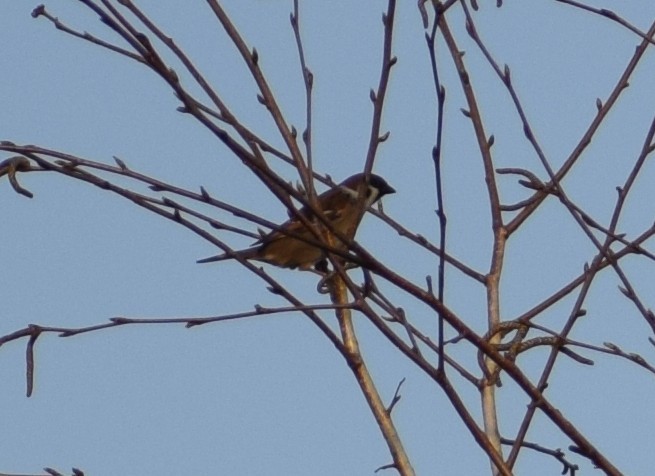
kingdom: Animalia
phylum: Chordata
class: Aves
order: Passeriformes
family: Passeridae
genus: Passer
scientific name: Passer montanus
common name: Eurasian tree sparrow
